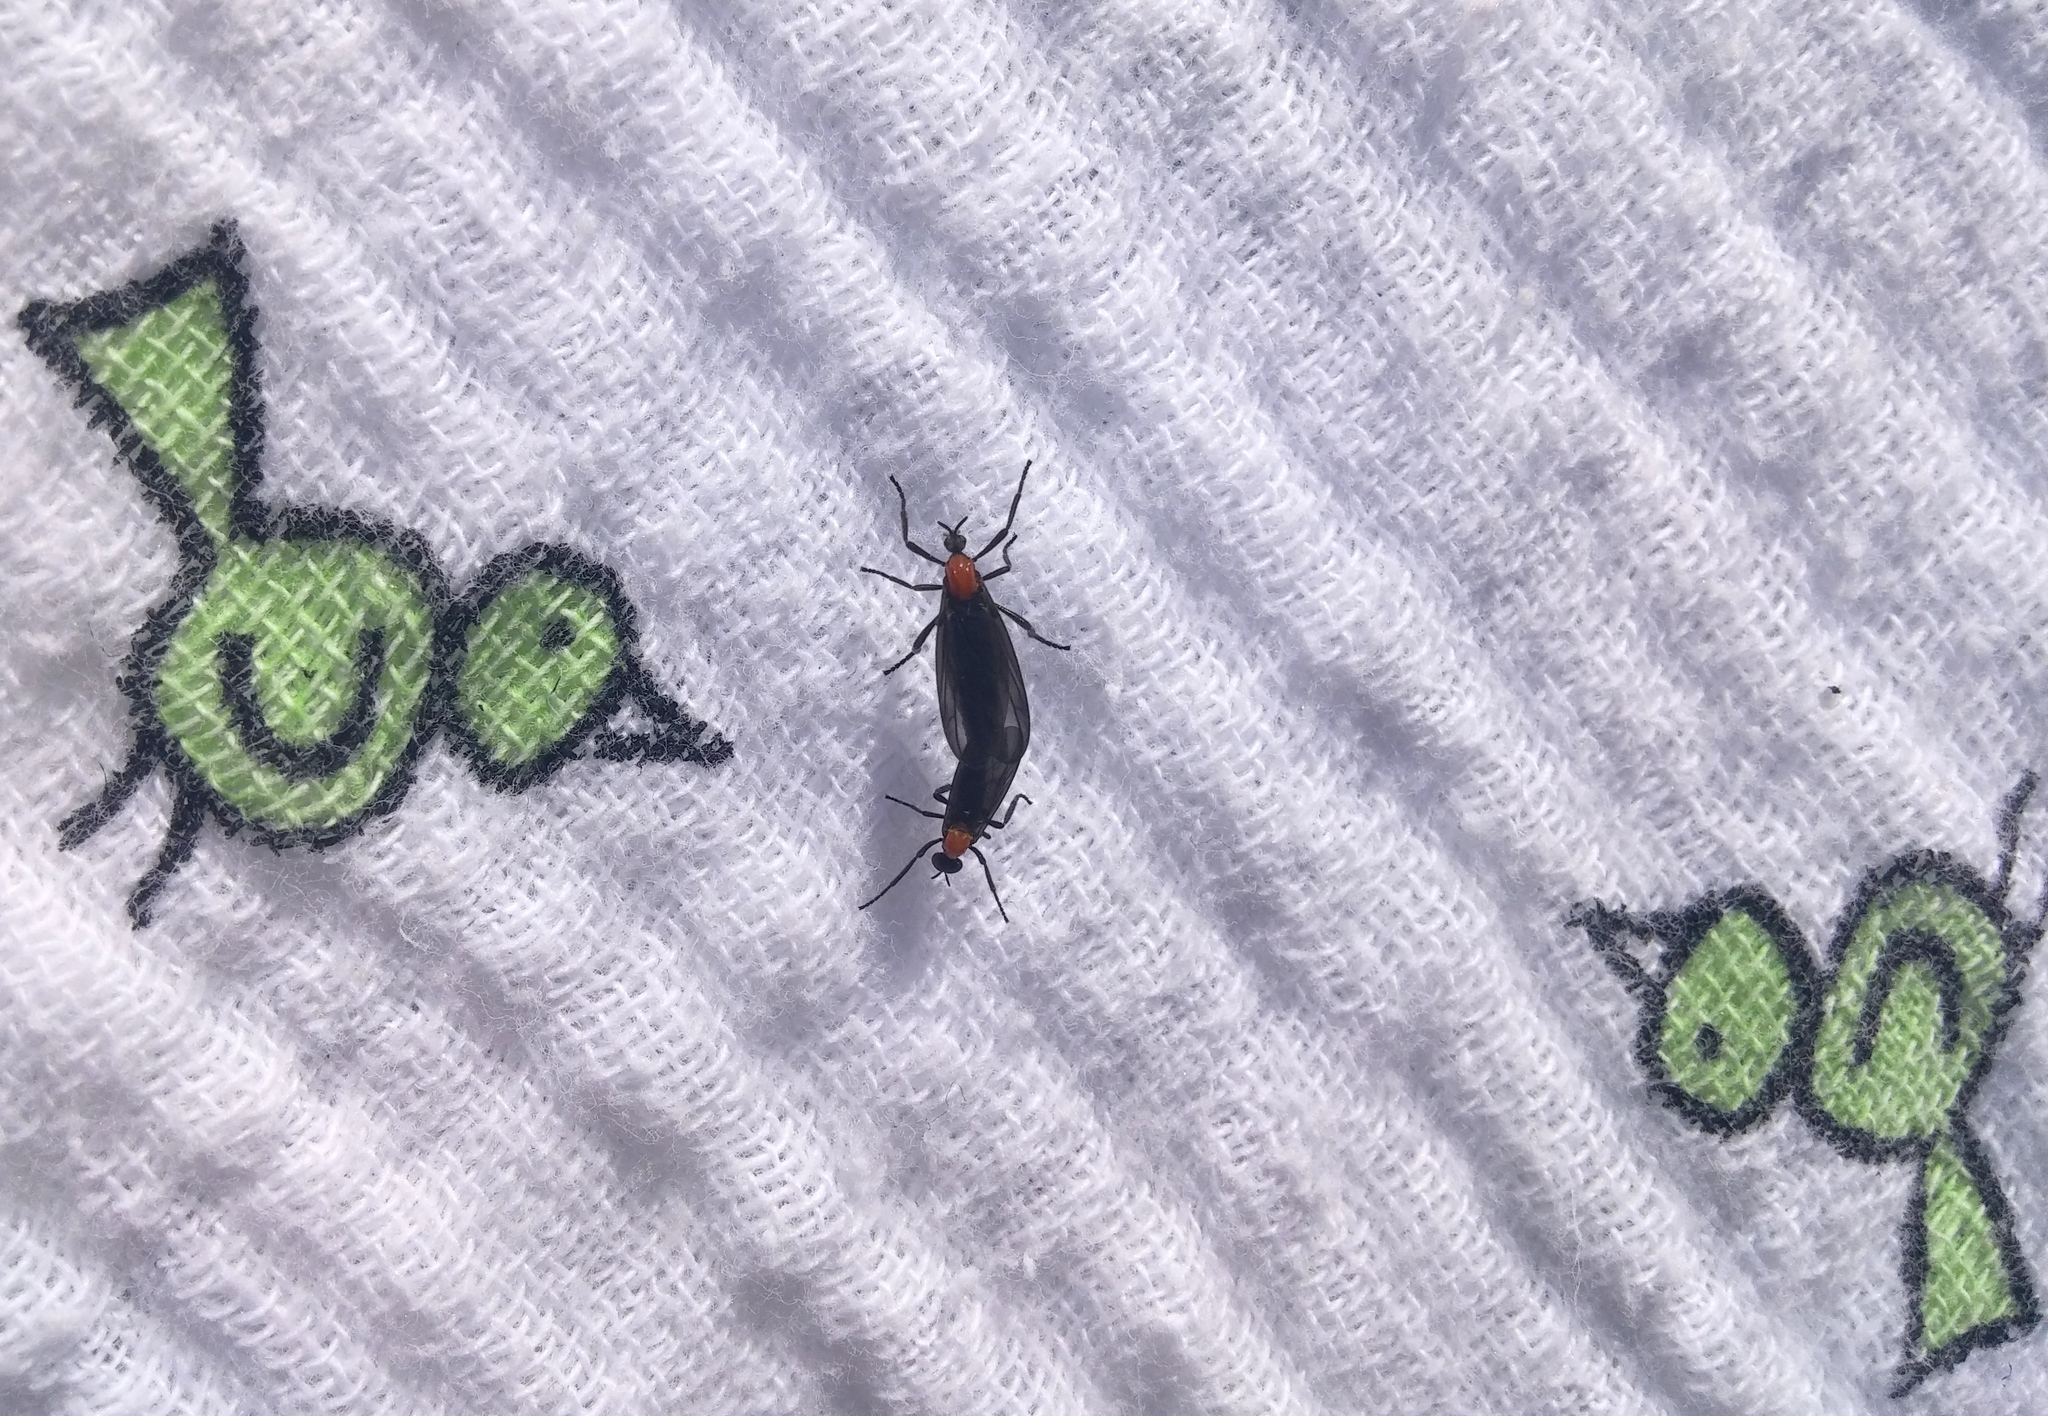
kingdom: Animalia
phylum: Arthropoda
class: Insecta
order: Diptera
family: Bibionidae
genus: Plecia
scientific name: Plecia nearctica
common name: March fly
